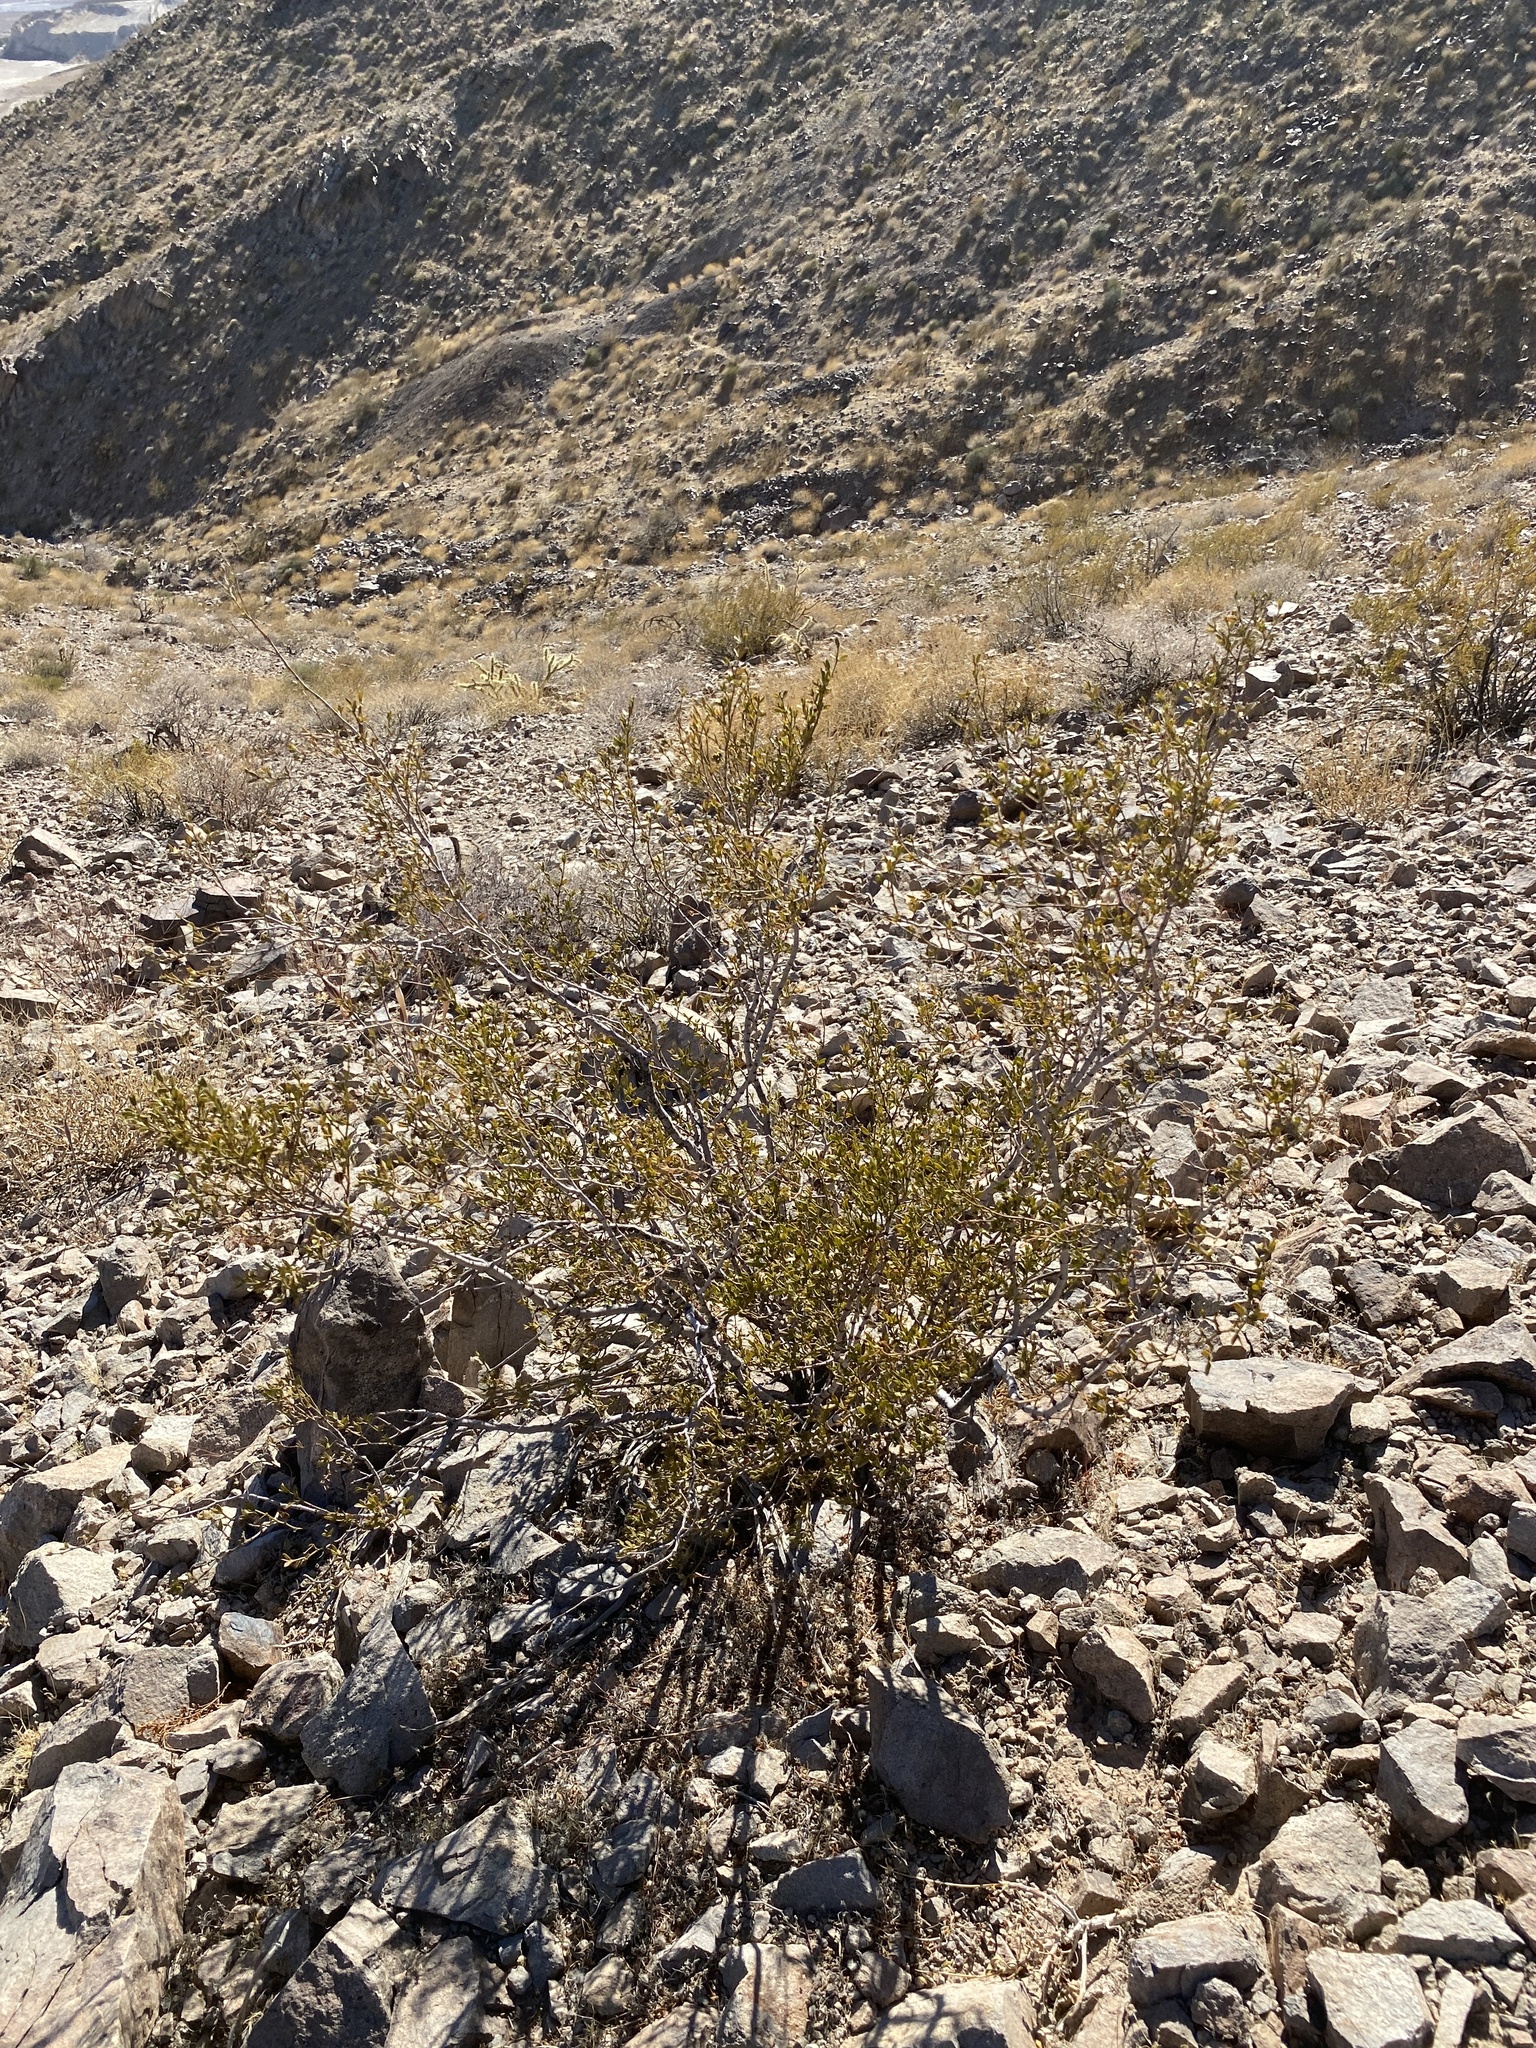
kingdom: Plantae
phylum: Tracheophyta
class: Magnoliopsida
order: Zygophyllales
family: Zygophyllaceae
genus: Larrea
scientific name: Larrea tridentata
